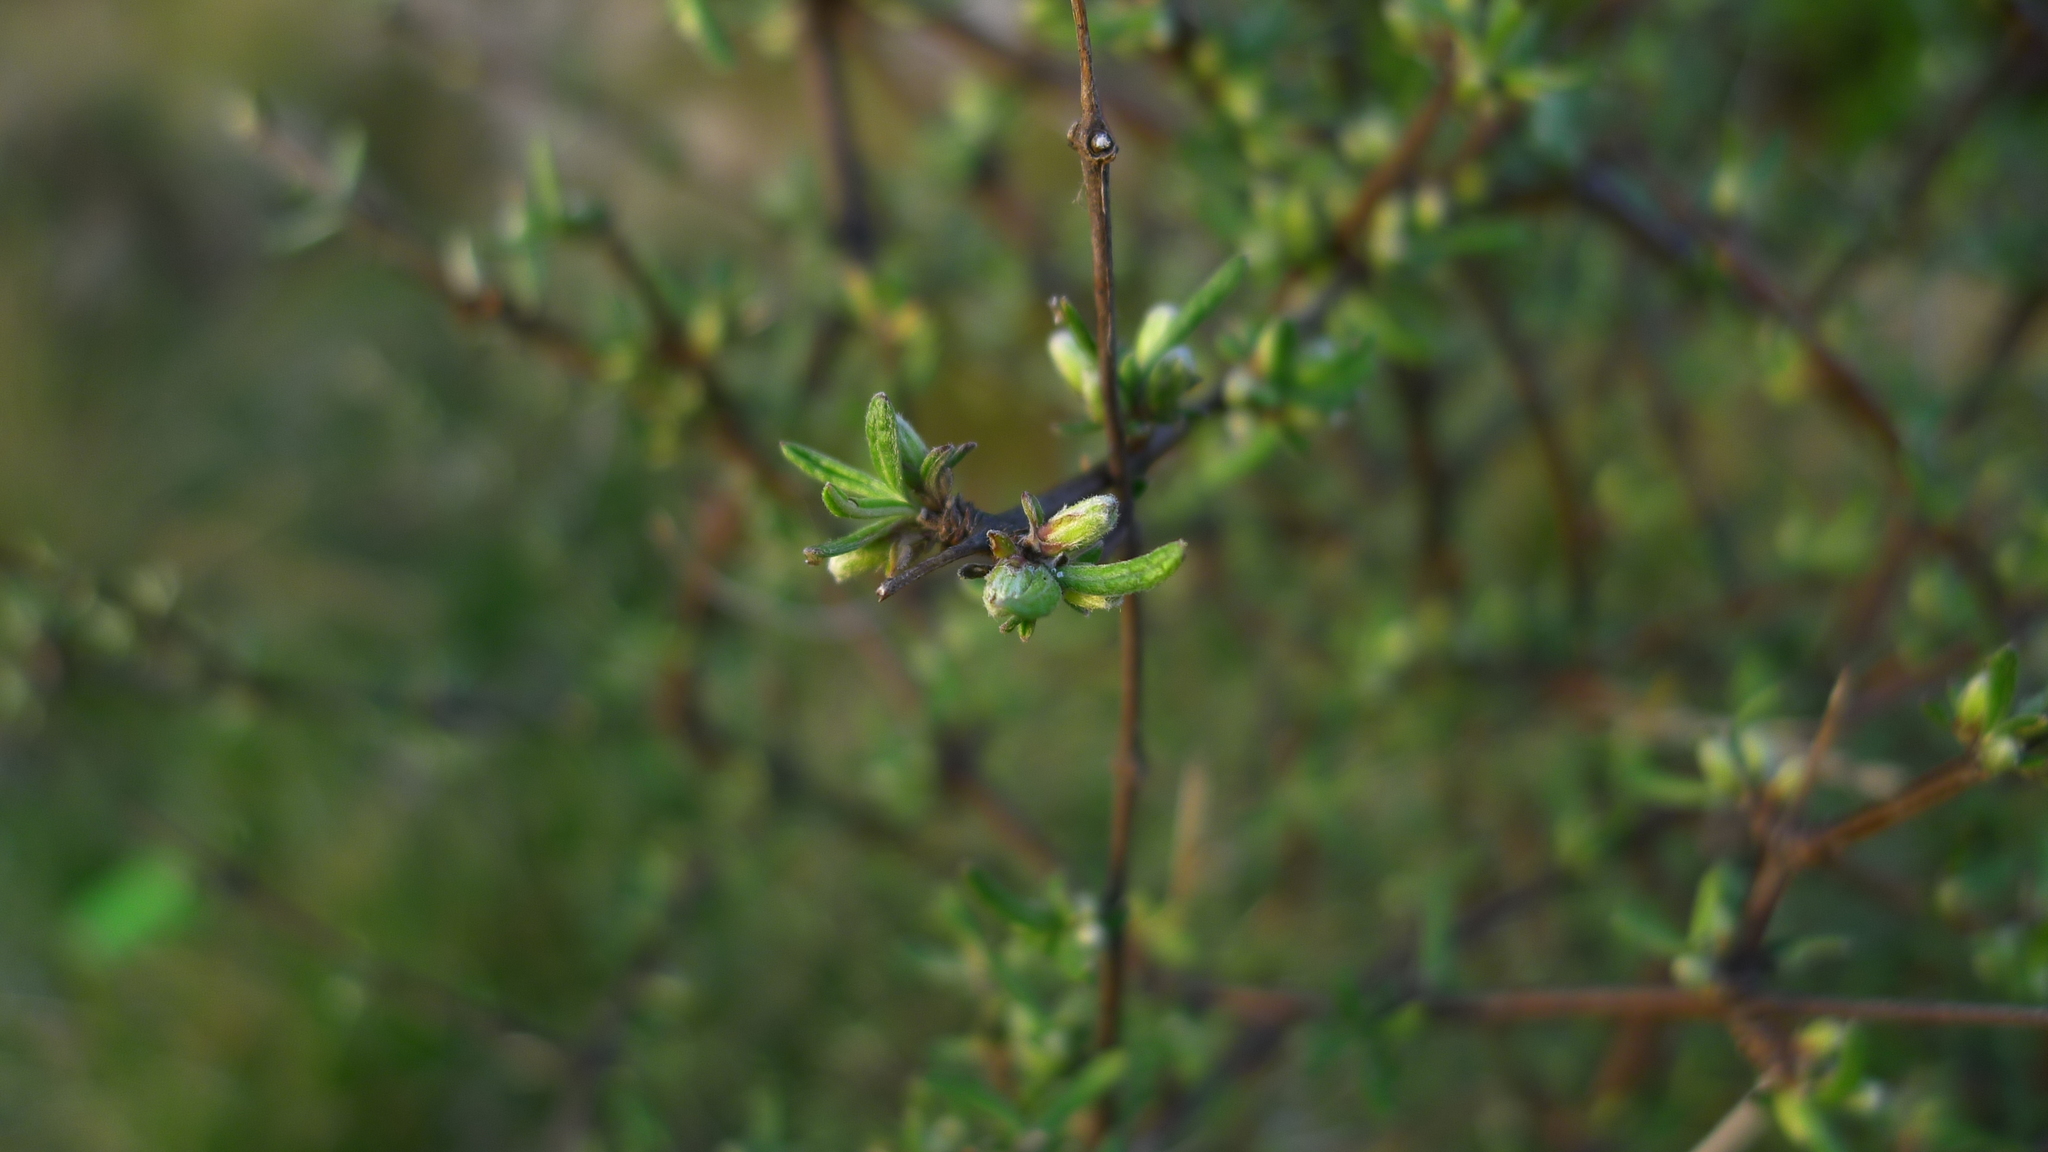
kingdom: Plantae
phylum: Tracheophyta
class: Magnoliopsida
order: Asterales
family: Asteraceae
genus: Olearia
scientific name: Olearia bullata
